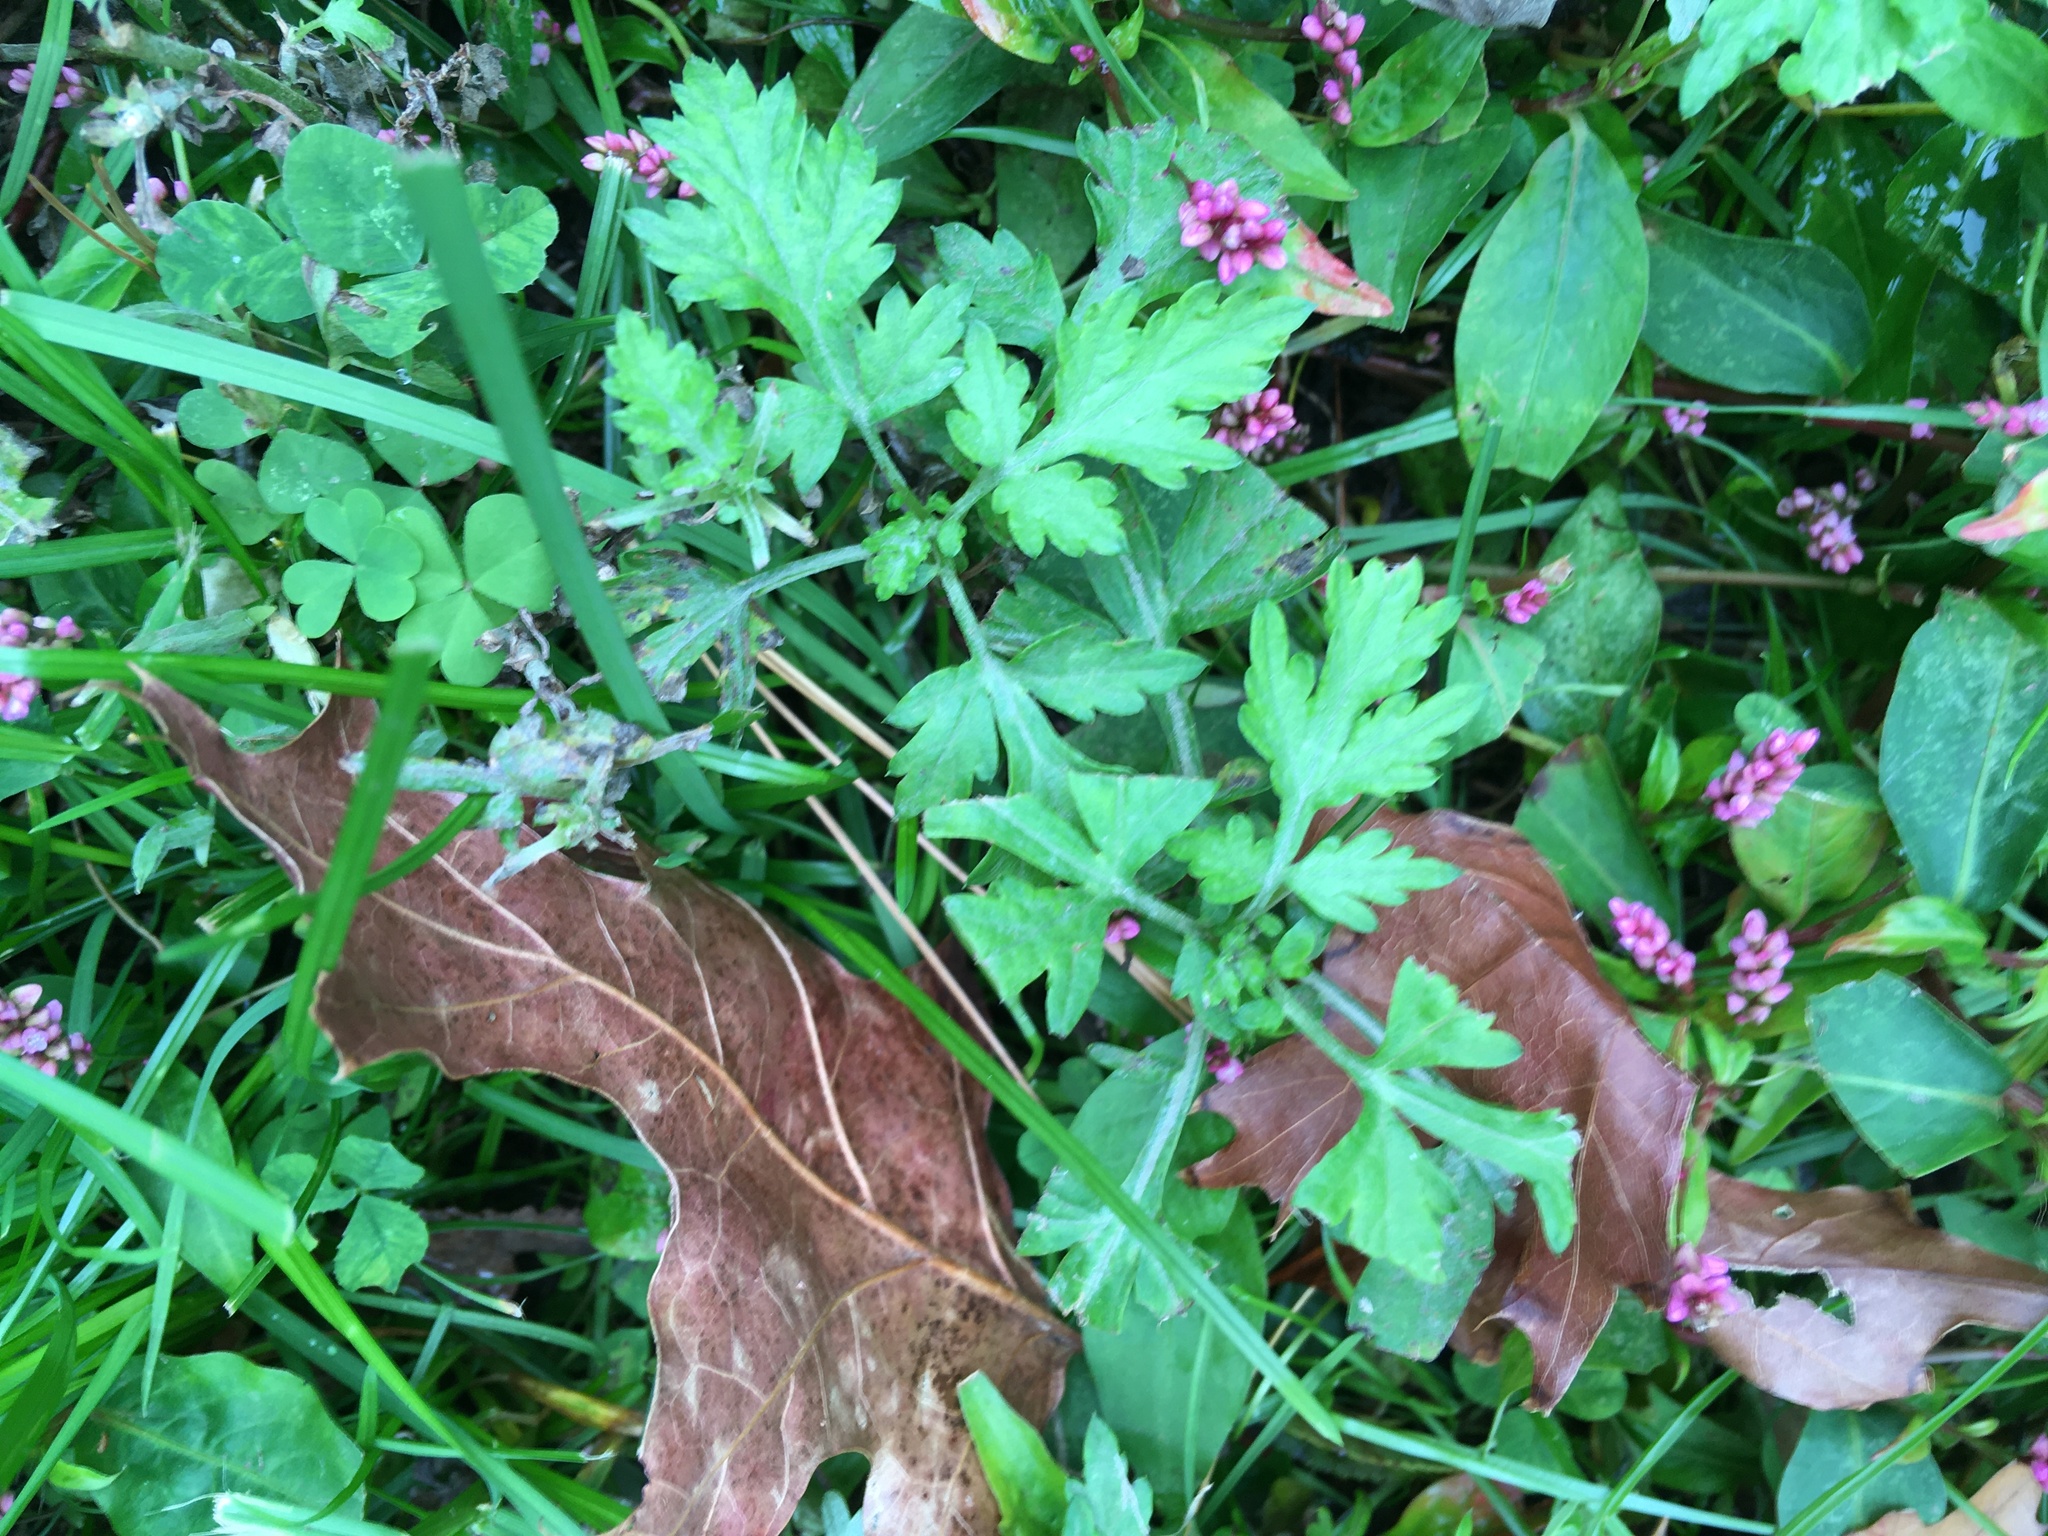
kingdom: Plantae
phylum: Tracheophyta
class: Magnoliopsida
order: Asterales
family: Asteraceae
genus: Artemisia
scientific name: Artemisia vulgaris
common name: Mugwort
